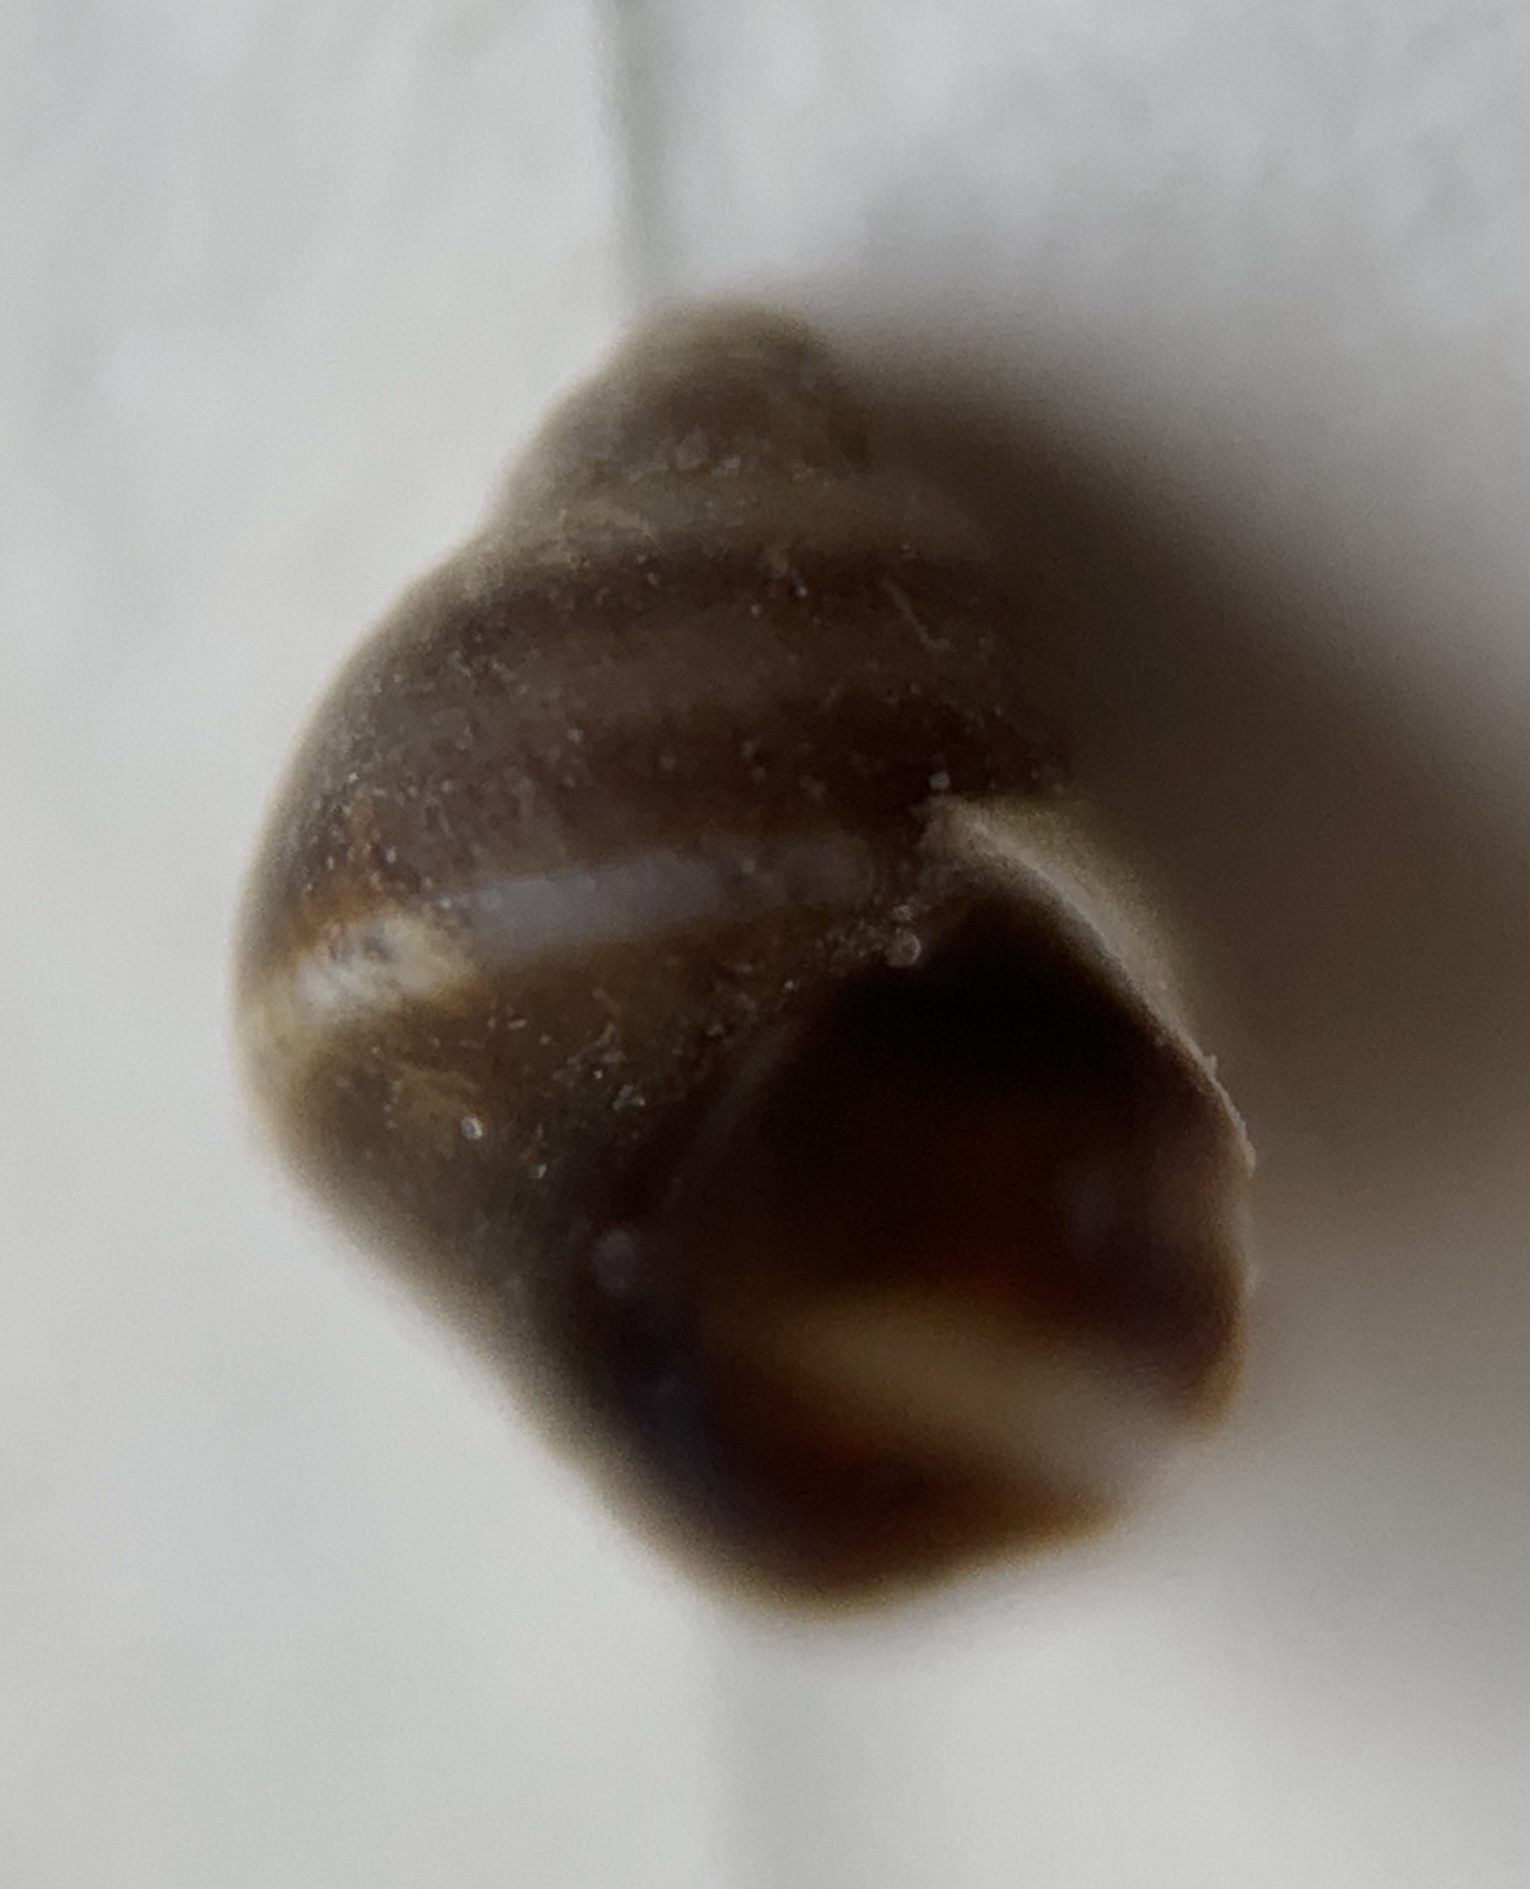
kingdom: Animalia
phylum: Mollusca
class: Gastropoda
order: Littorinimorpha
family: Littorinidae
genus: Lacuna
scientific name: Lacuna vincta
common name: Banded chink shell
